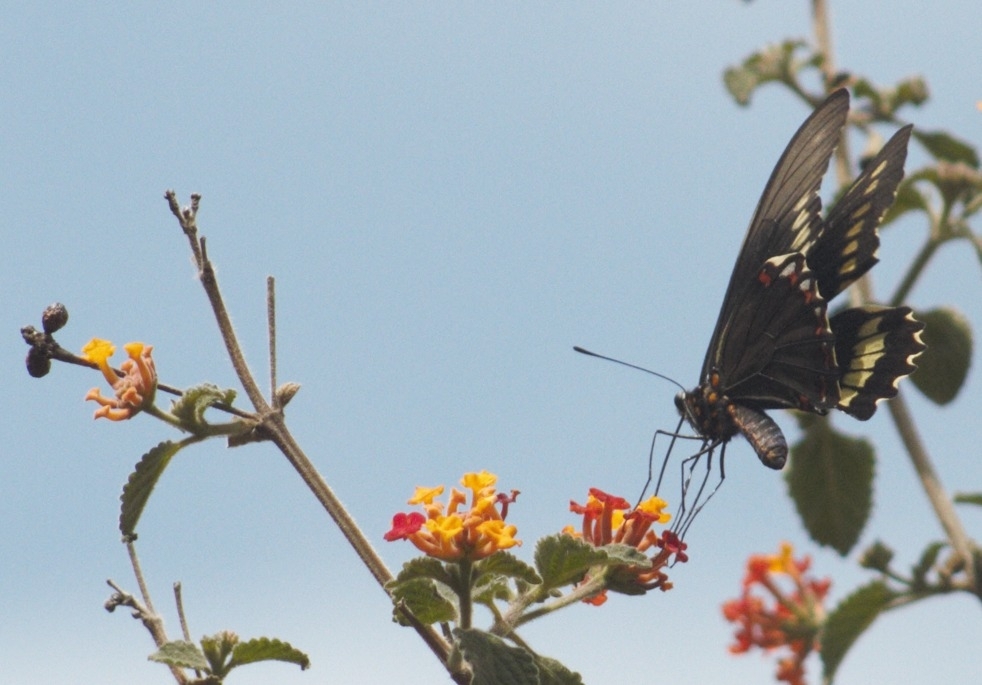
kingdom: Animalia
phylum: Arthropoda
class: Insecta
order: Lepidoptera
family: Papilionidae
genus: Battus
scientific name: Battus polydamas
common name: Polydamas swallowtail
